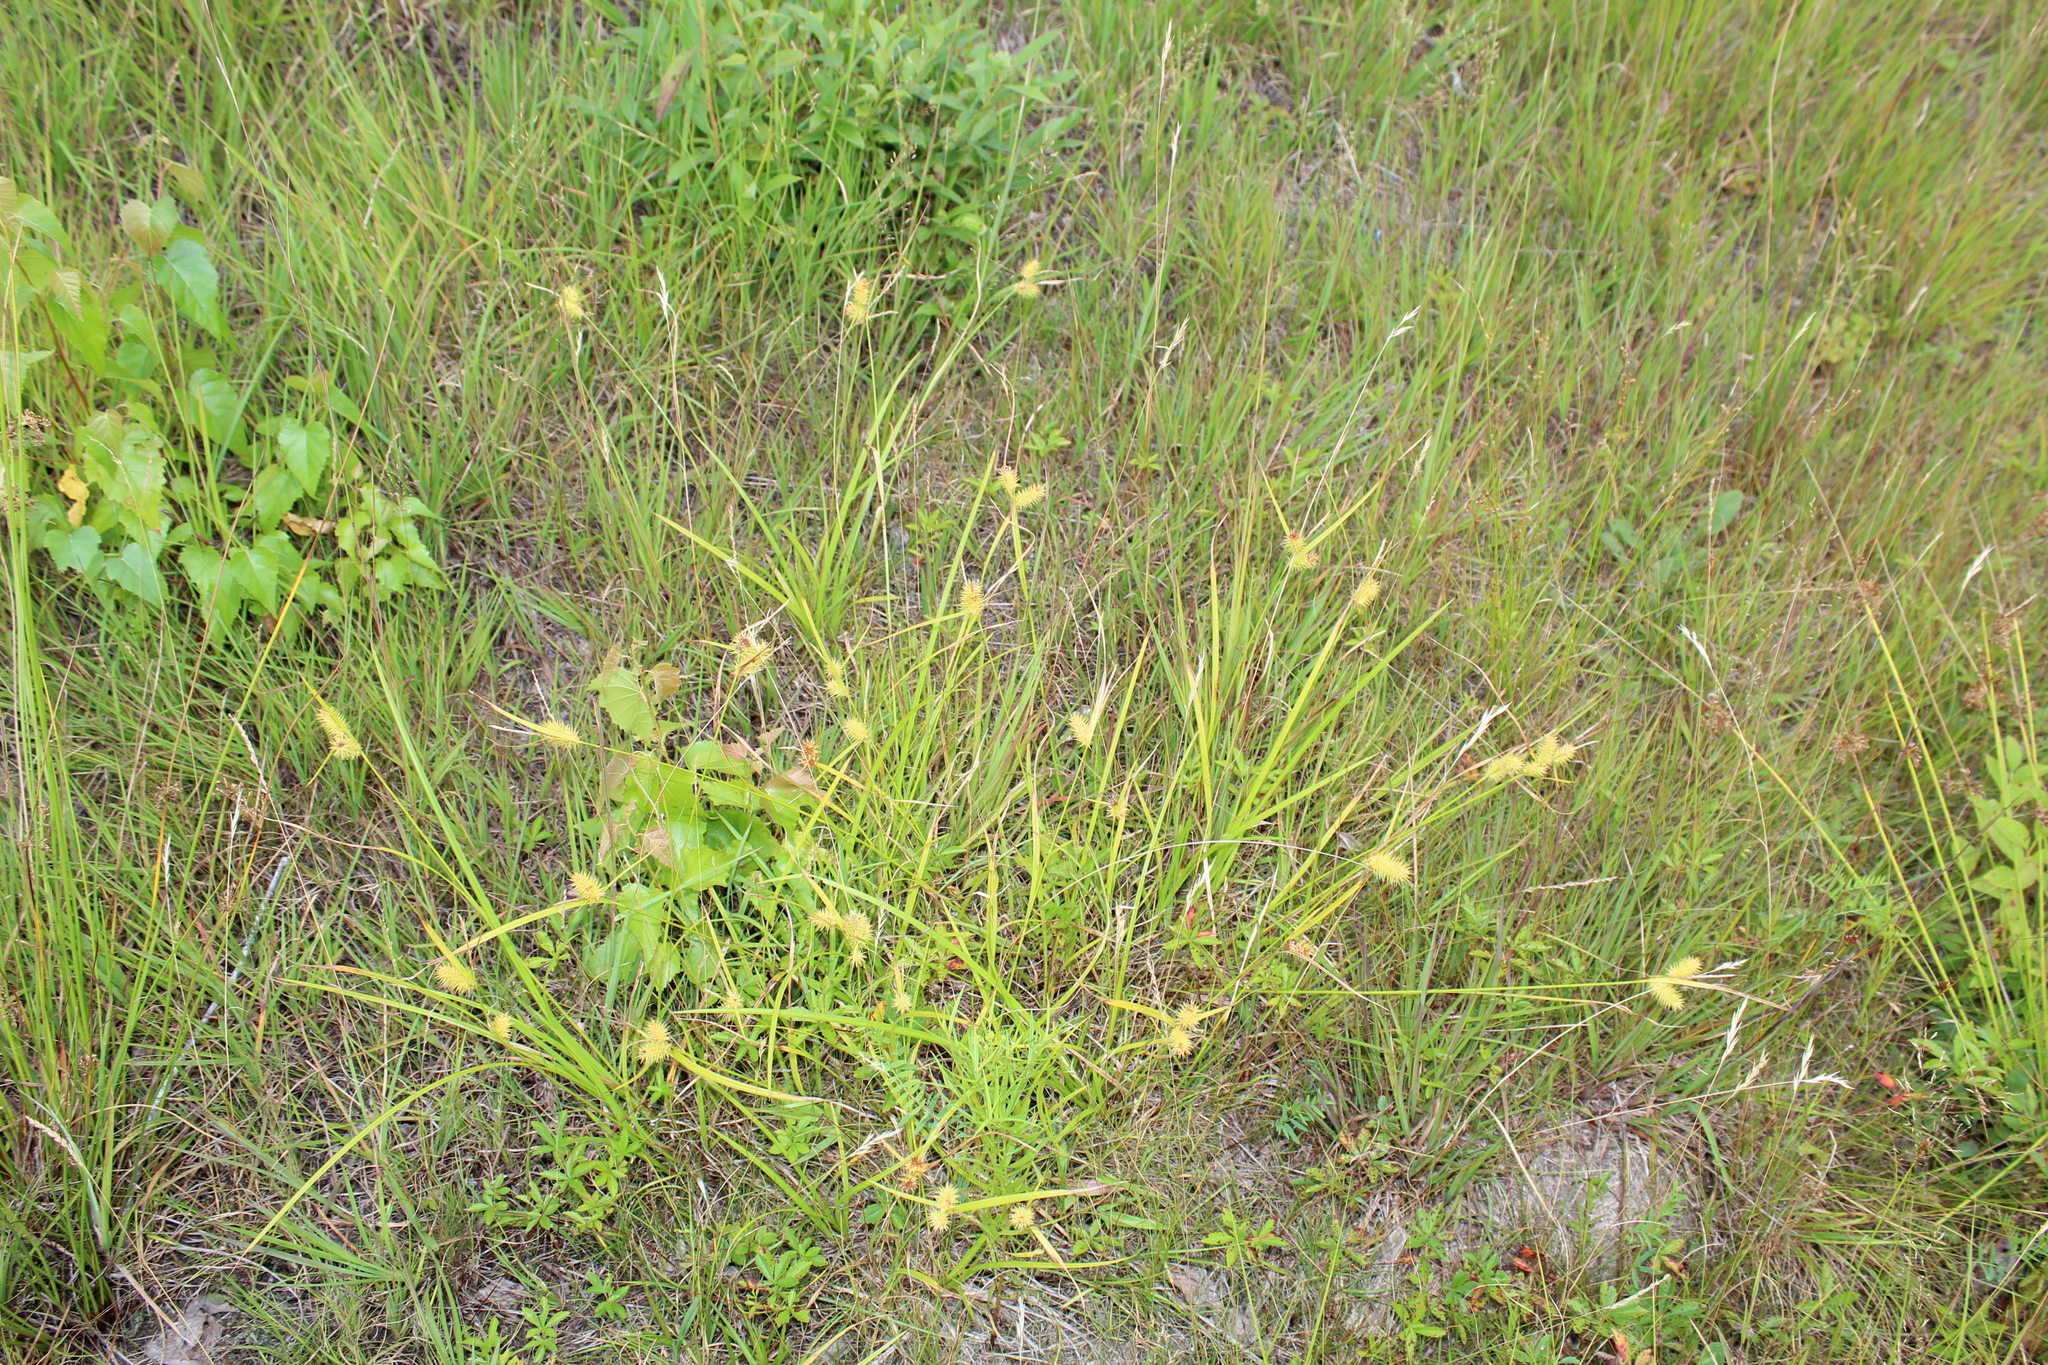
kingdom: Plantae
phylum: Tracheophyta
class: Liliopsida
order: Poales
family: Cyperaceae
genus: Carex
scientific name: Carex lurida
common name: Sallow sedge
